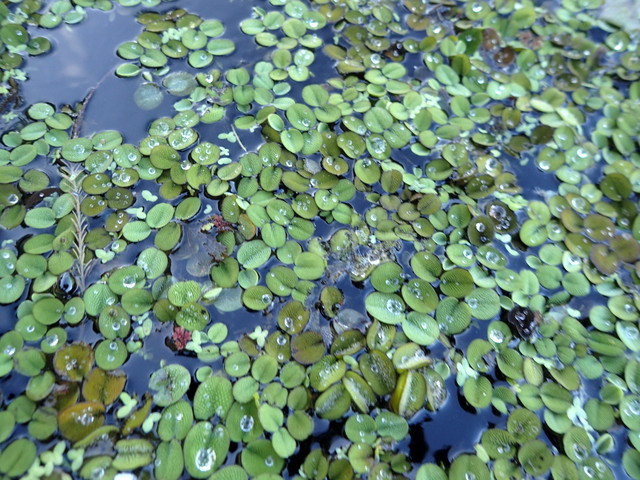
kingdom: Plantae
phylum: Tracheophyta
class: Polypodiopsida
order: Salviniales
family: Salviniaceae
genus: Salvinia
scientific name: Salvinia minima
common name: Water spangles
